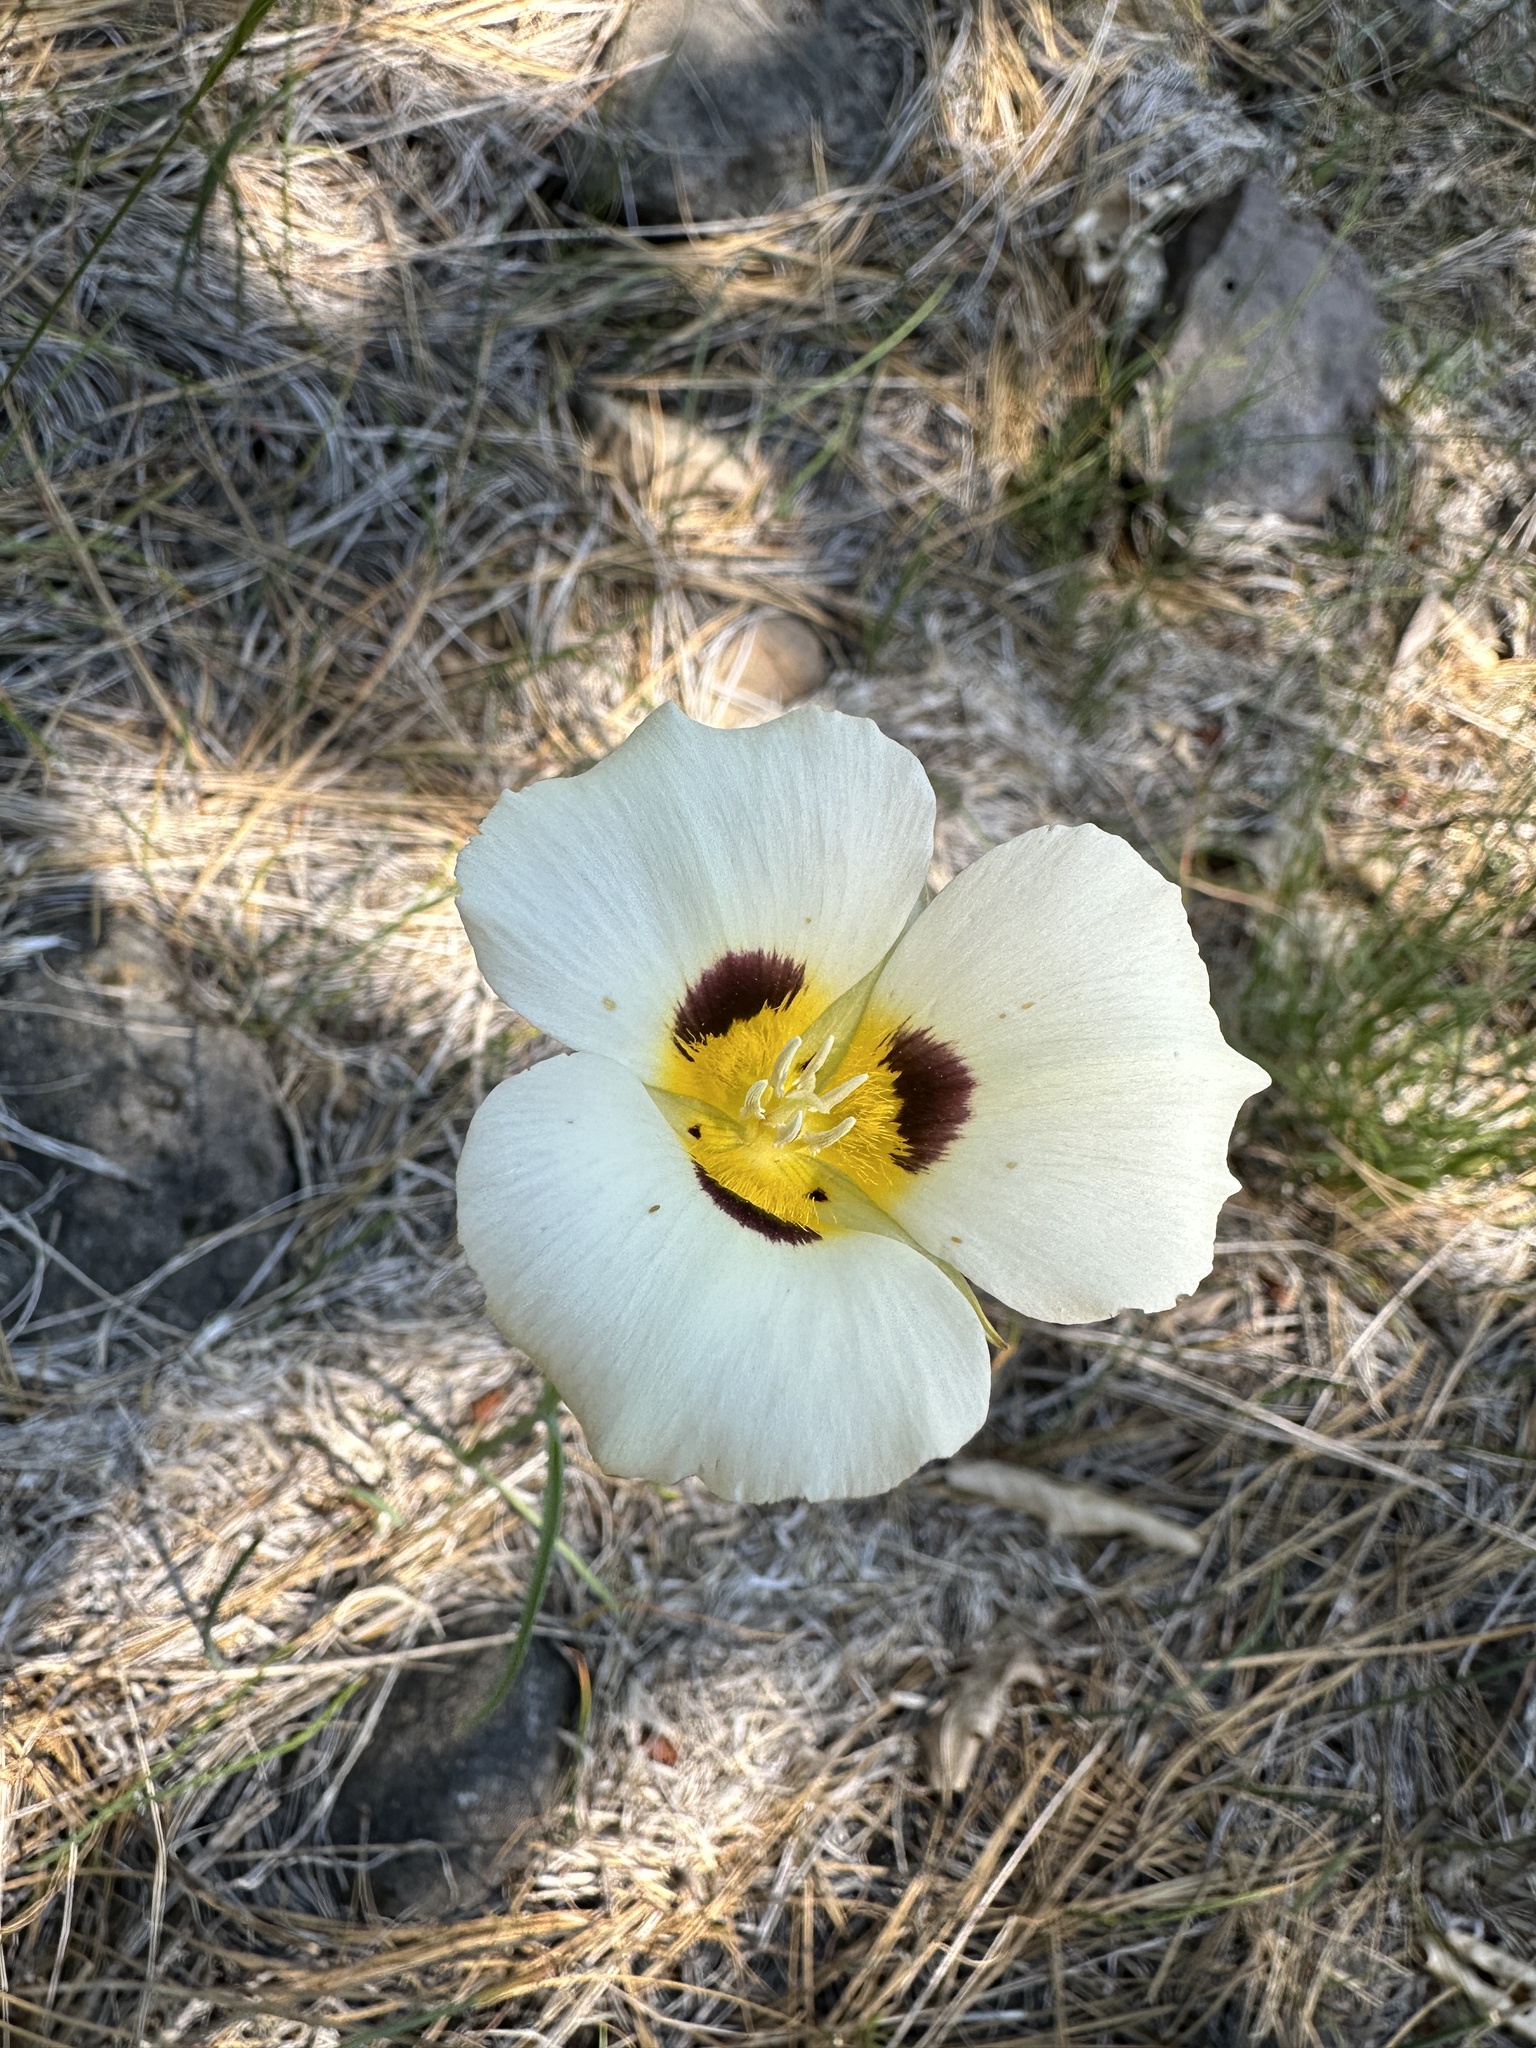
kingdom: Plantae
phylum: Tracheophyta
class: Liliopsida
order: Liliales
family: Liliaceae
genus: Calochortus
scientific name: Calochortus leichtlinii
